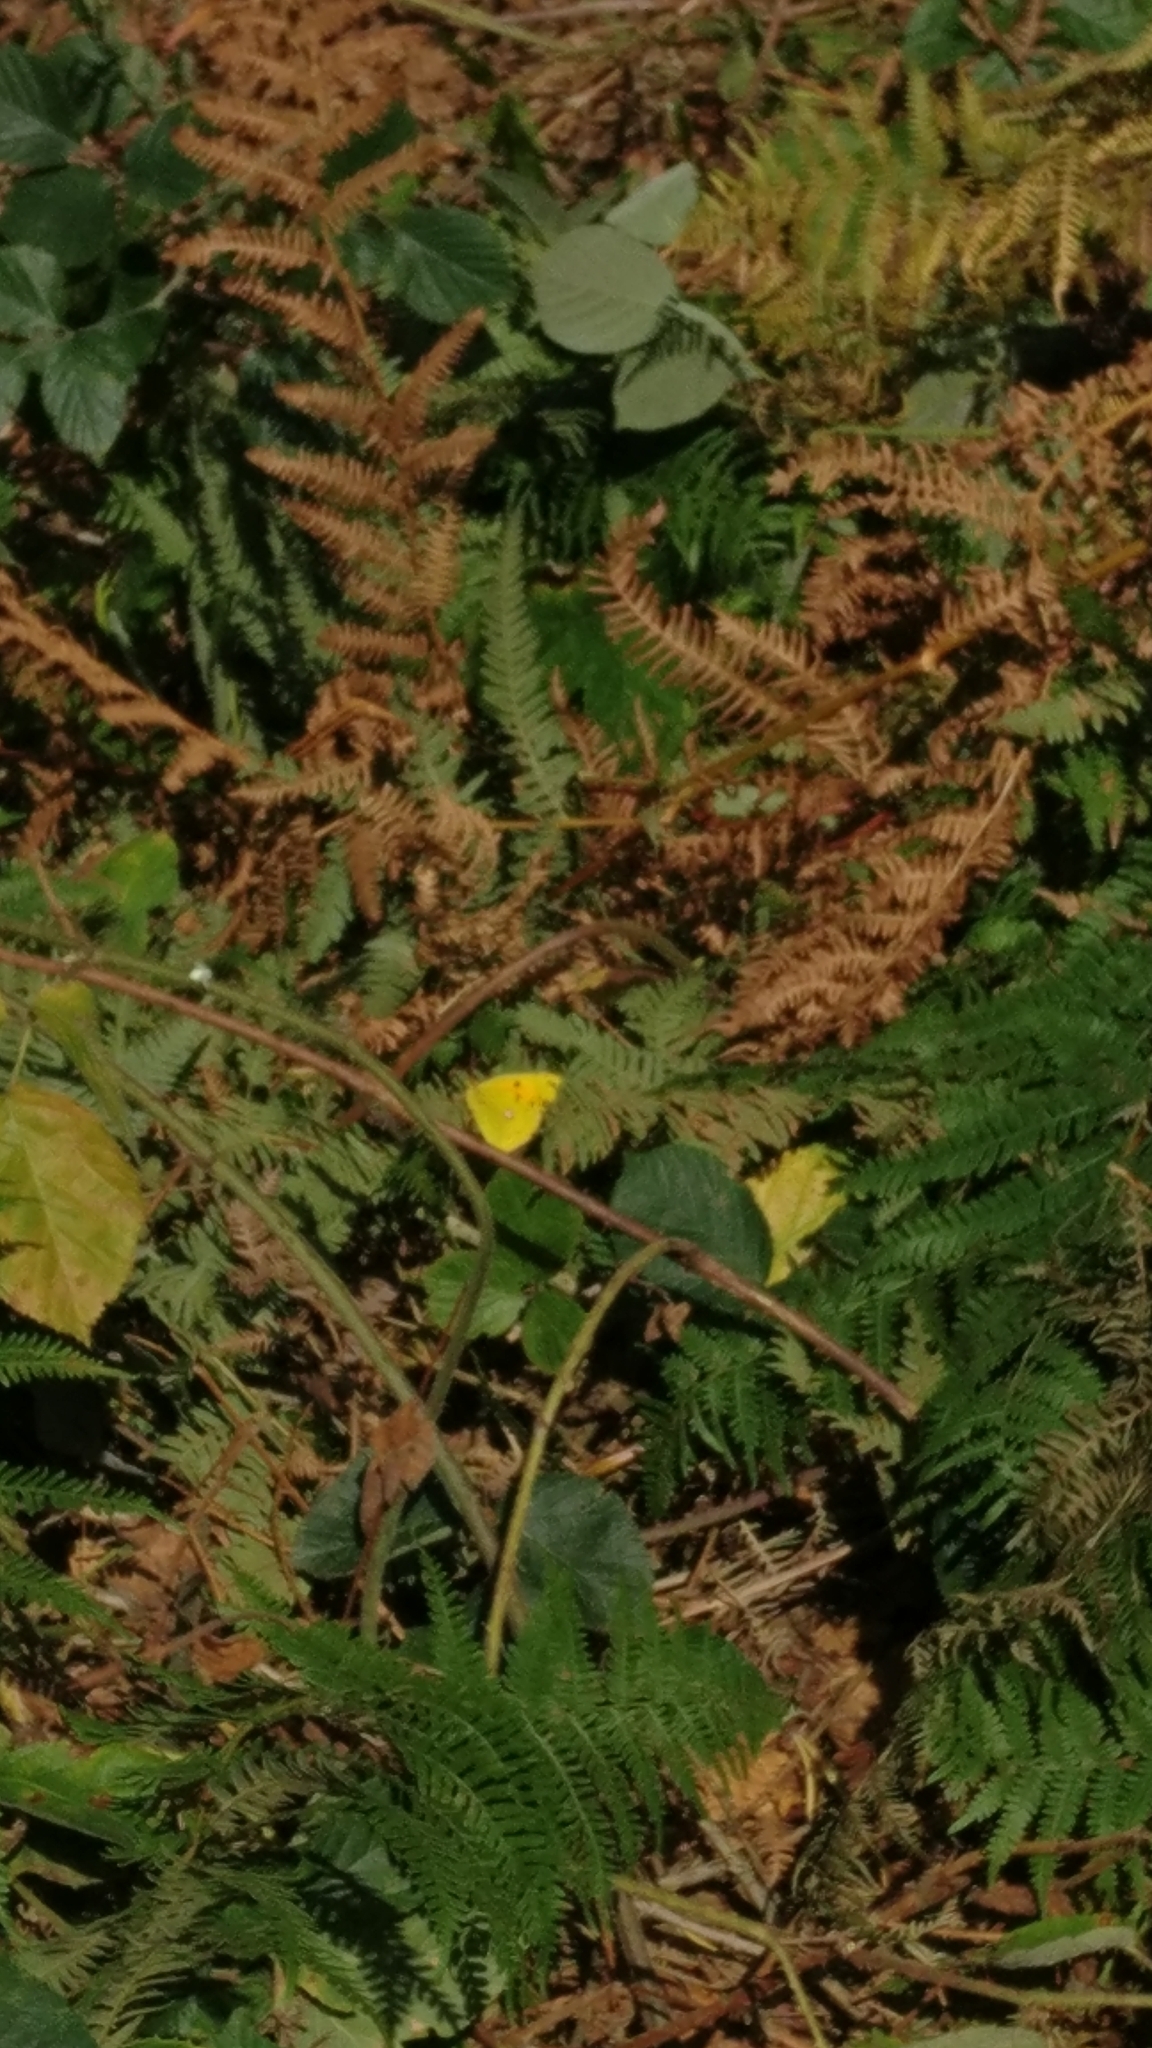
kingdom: Animalia
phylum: Arthropoda
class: Insecta
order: Lepidoptera
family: Pieridae
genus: Colias
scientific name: Colias croceus
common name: Clouded yellow
